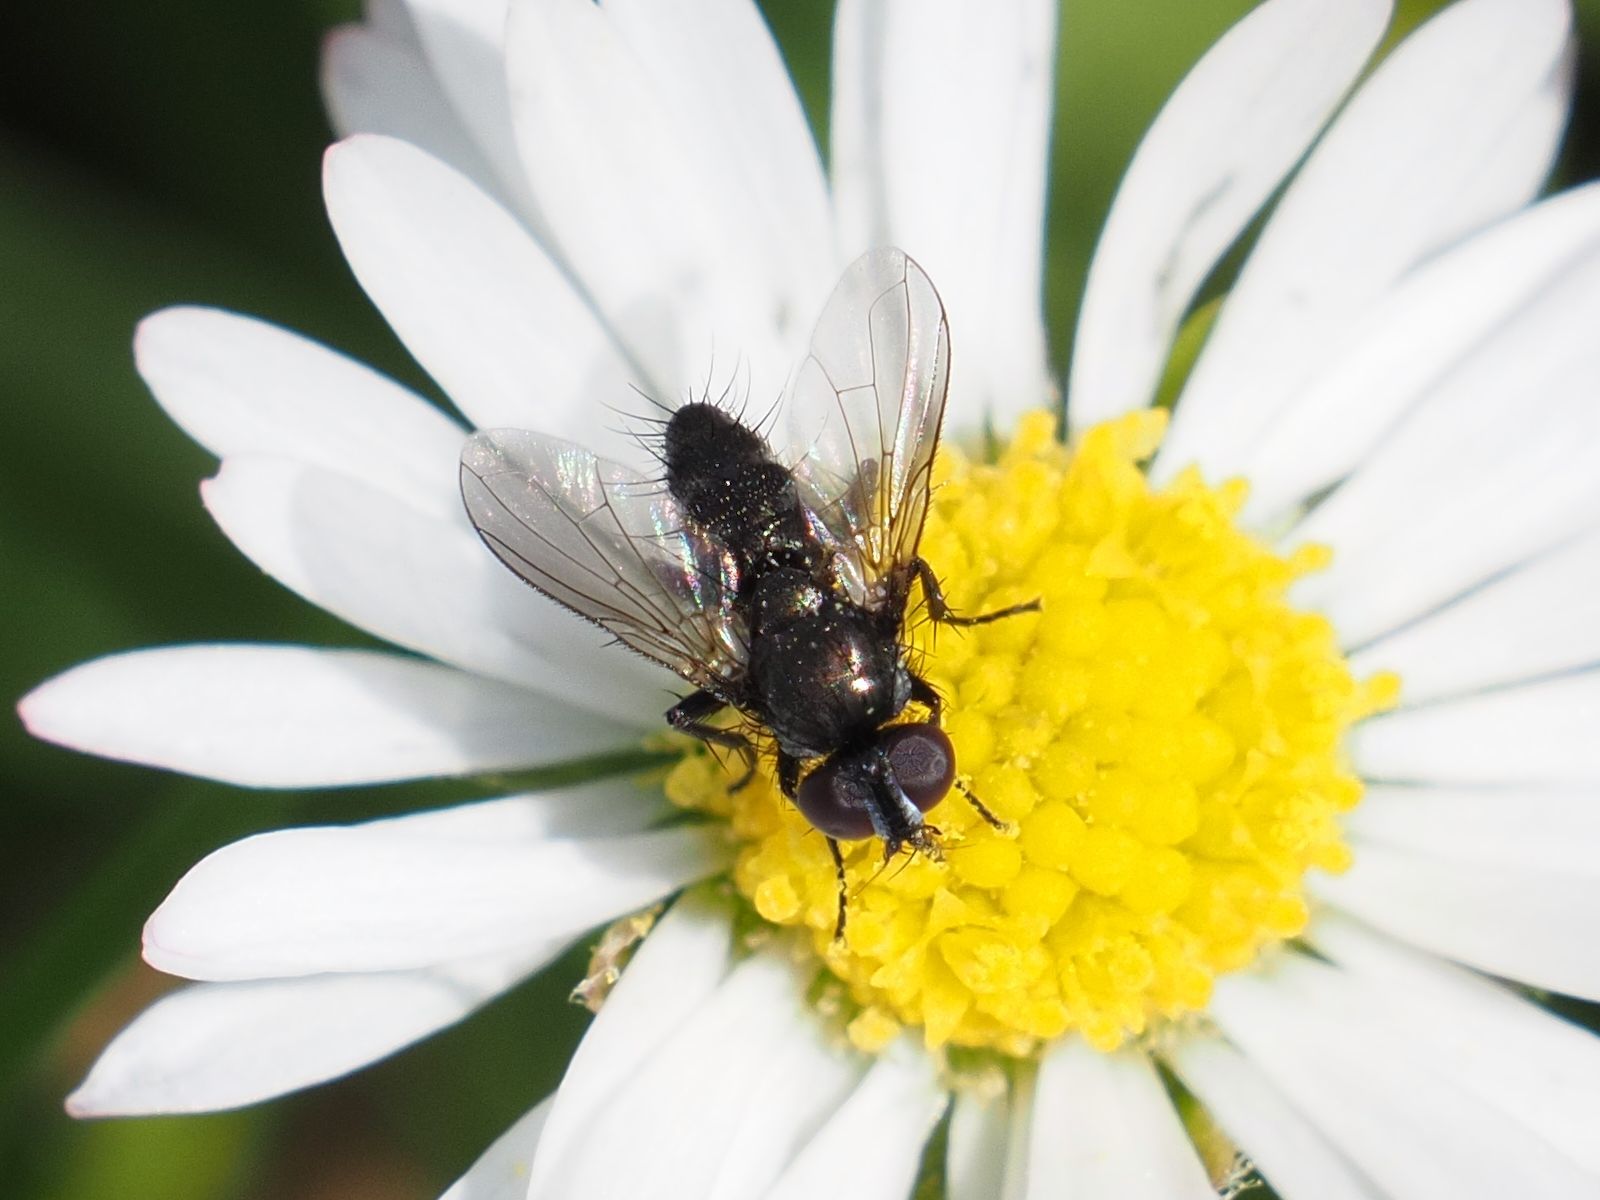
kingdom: Animalia
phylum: Arthropoda
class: Insecta
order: Diptera
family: Calliphoridae
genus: Rhinophora
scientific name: Rhinophora lepida
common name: Pouting woodlouse-fly
